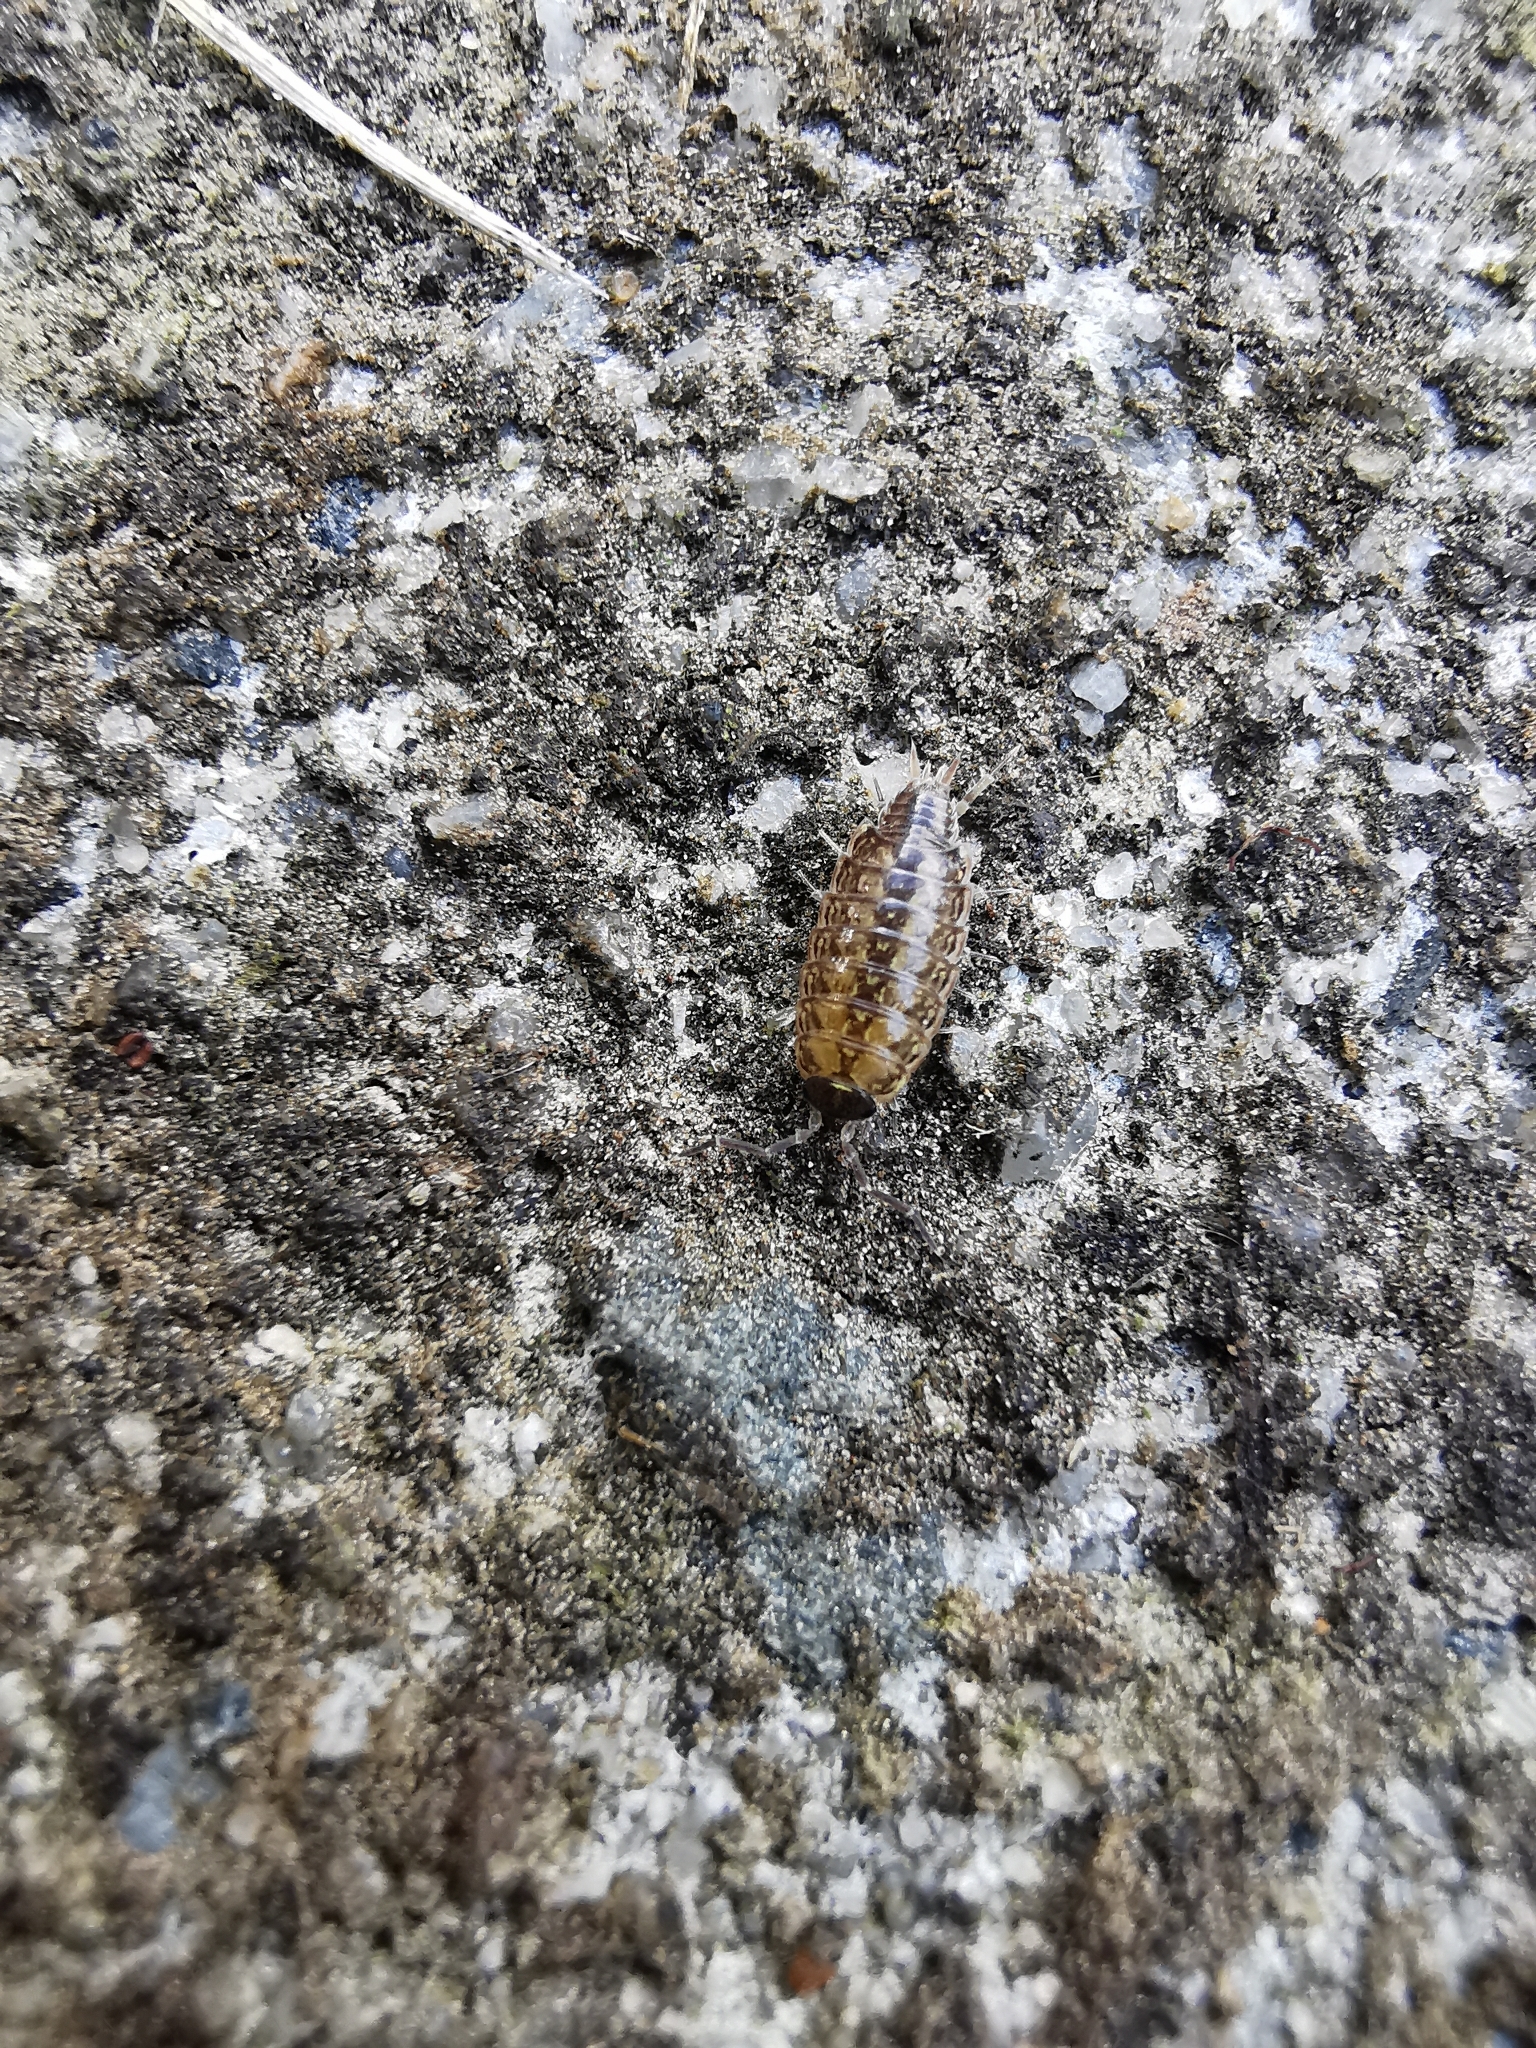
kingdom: Animalia
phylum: Arthropoda
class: Malacostraca
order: Isopoda
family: Philosciidae
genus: Philoscia
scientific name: Philoscia muscorum
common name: Common striped woodlouse
